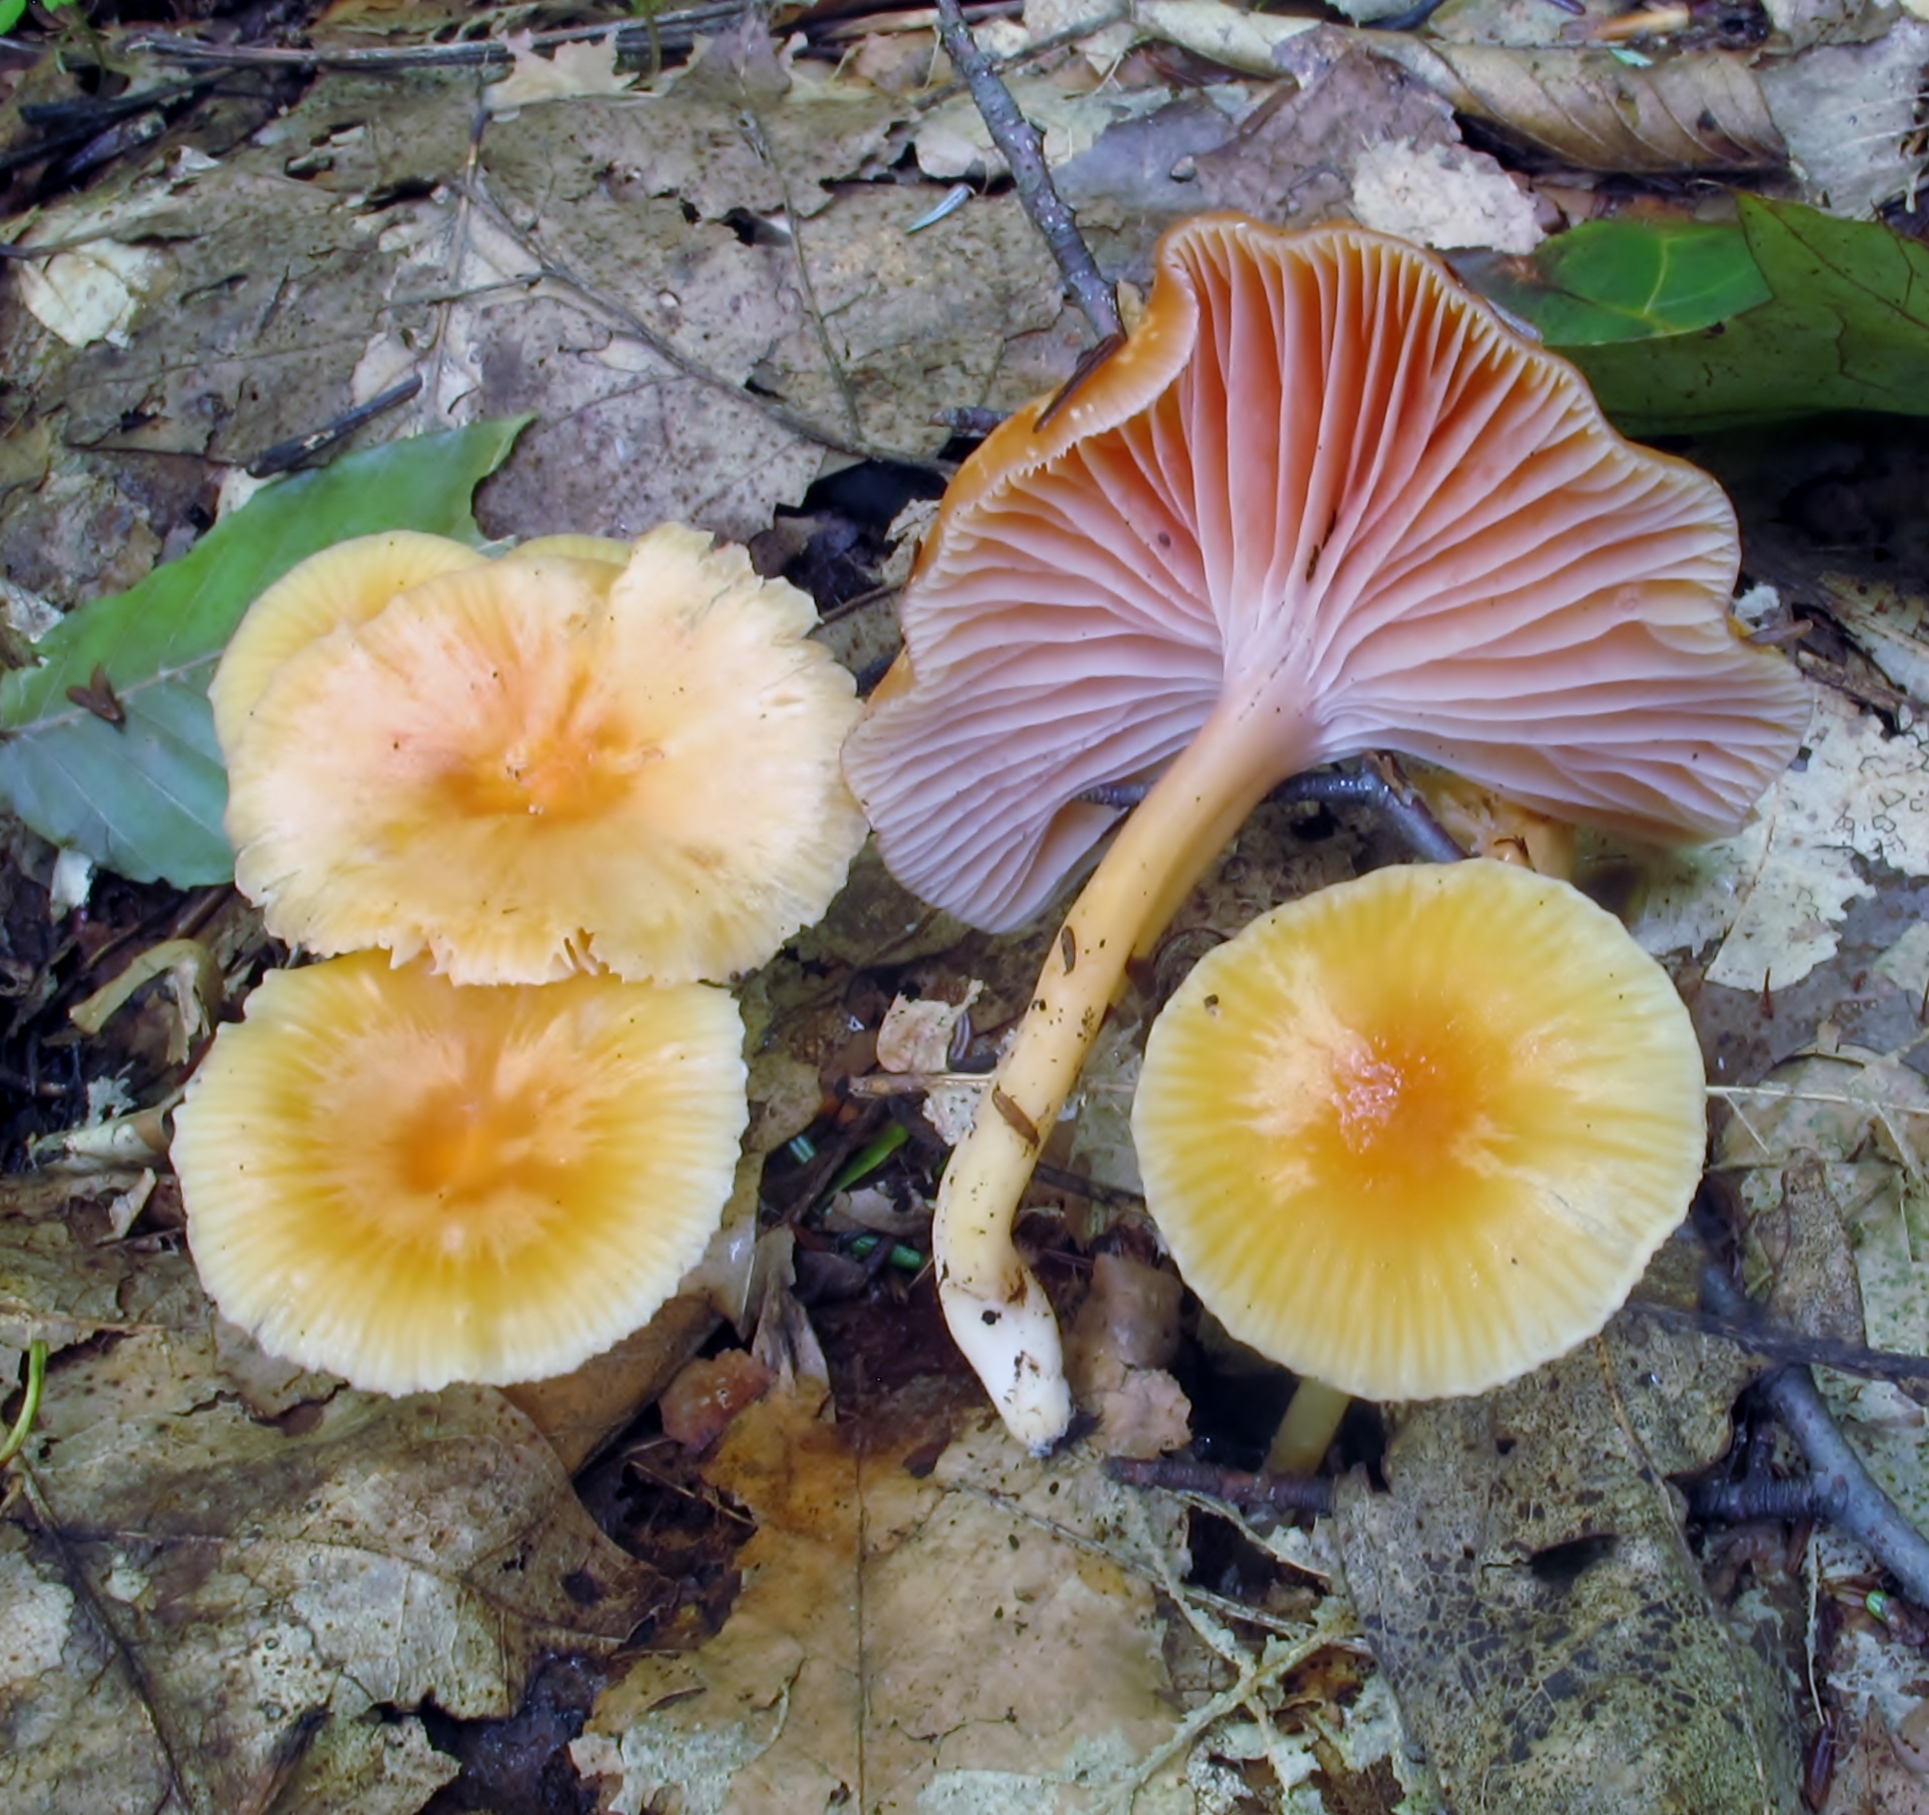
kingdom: Fungi
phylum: Basidiomycota
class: Agaricomycetes
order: Agaricales
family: Hygrophoraceae
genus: Gliophorus
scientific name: Gliophorus laetus
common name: Heath waxcap
